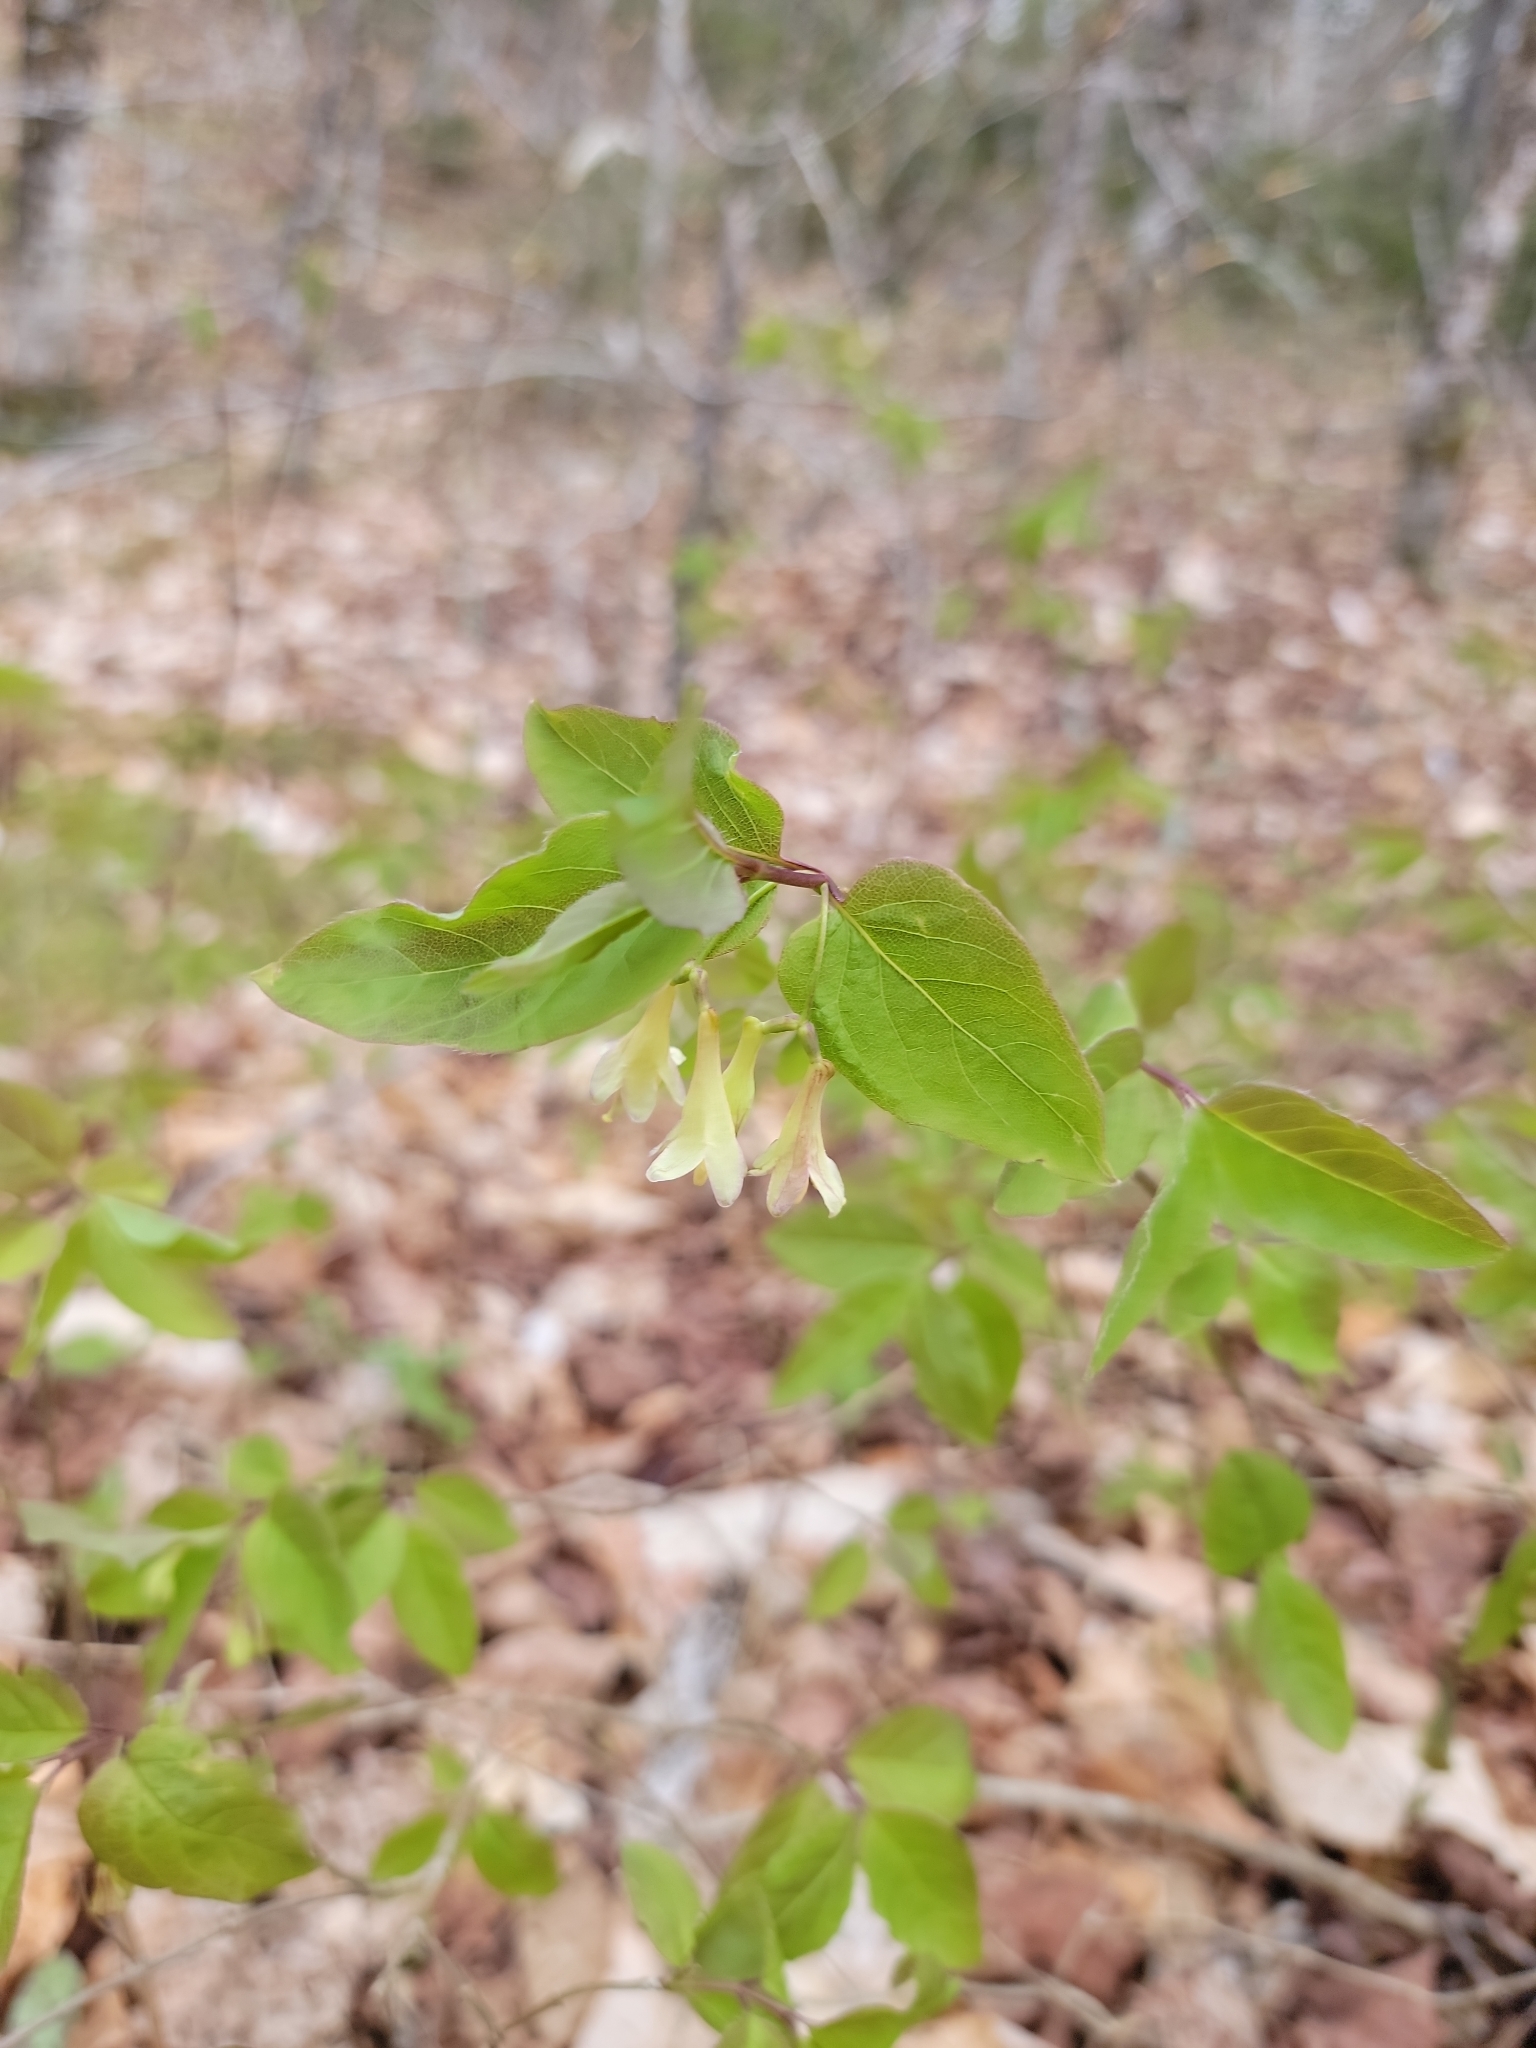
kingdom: Plantae
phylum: Tracheophyta
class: Magnoliopsida
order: Dipsacales
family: Caprifoliaceae
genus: Lonicera
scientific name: Lonicera canadensis
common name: American fly-honeysuckle
